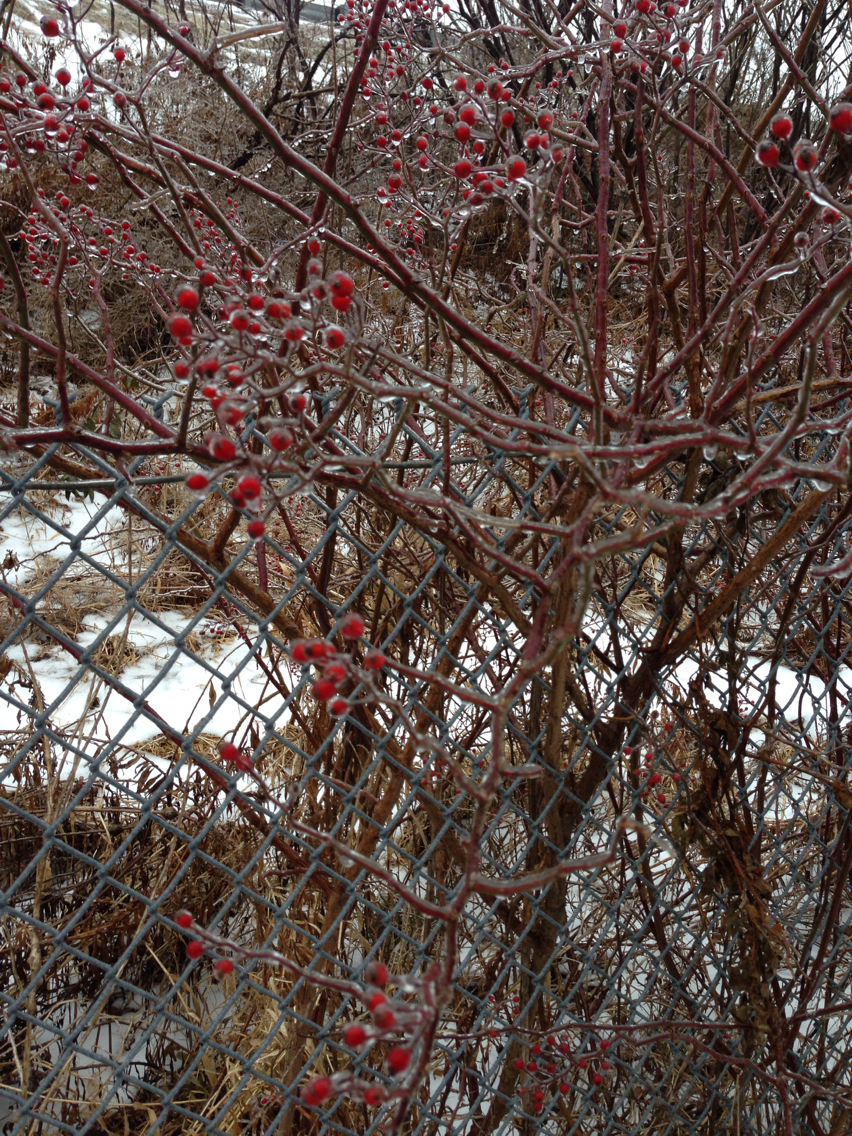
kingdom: Plantae
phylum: Tracheophyta
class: Magnoliopsida
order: Rosales
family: Rosaceae
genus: Rosa
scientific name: Rosa multiflora
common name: Multiflora rose
